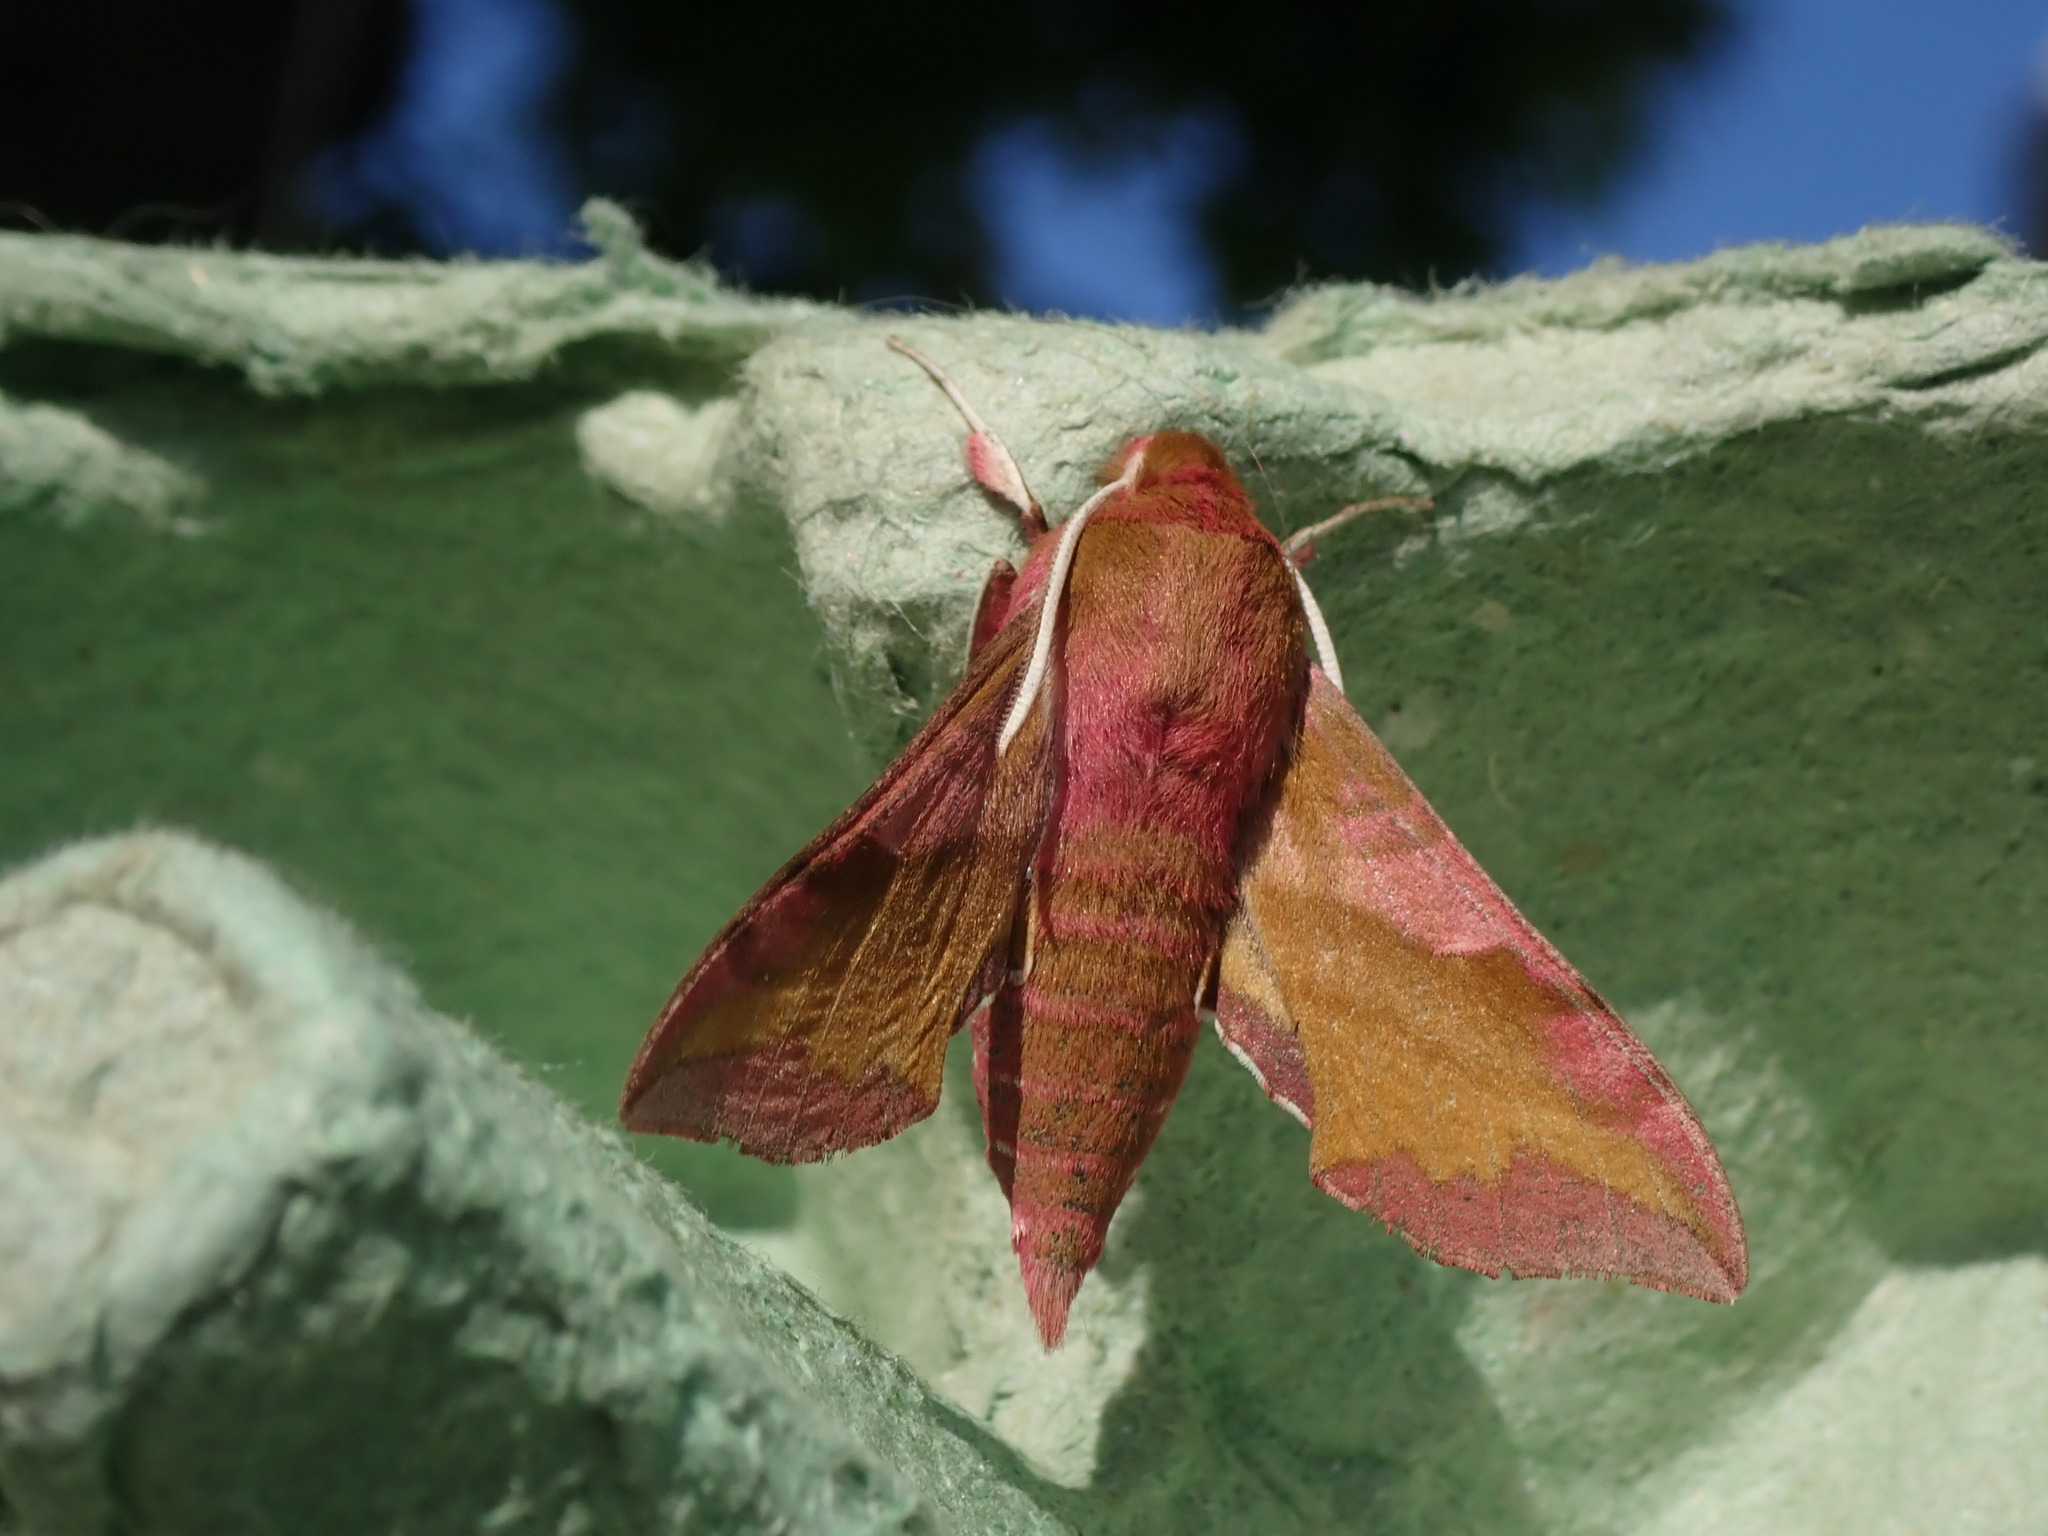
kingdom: Animalia
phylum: Arthropoda
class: Insecta
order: Lepidoptera
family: Sphingidae
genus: Deilephila
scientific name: Deilephila porcellus
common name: Small elephant hawk-moth
